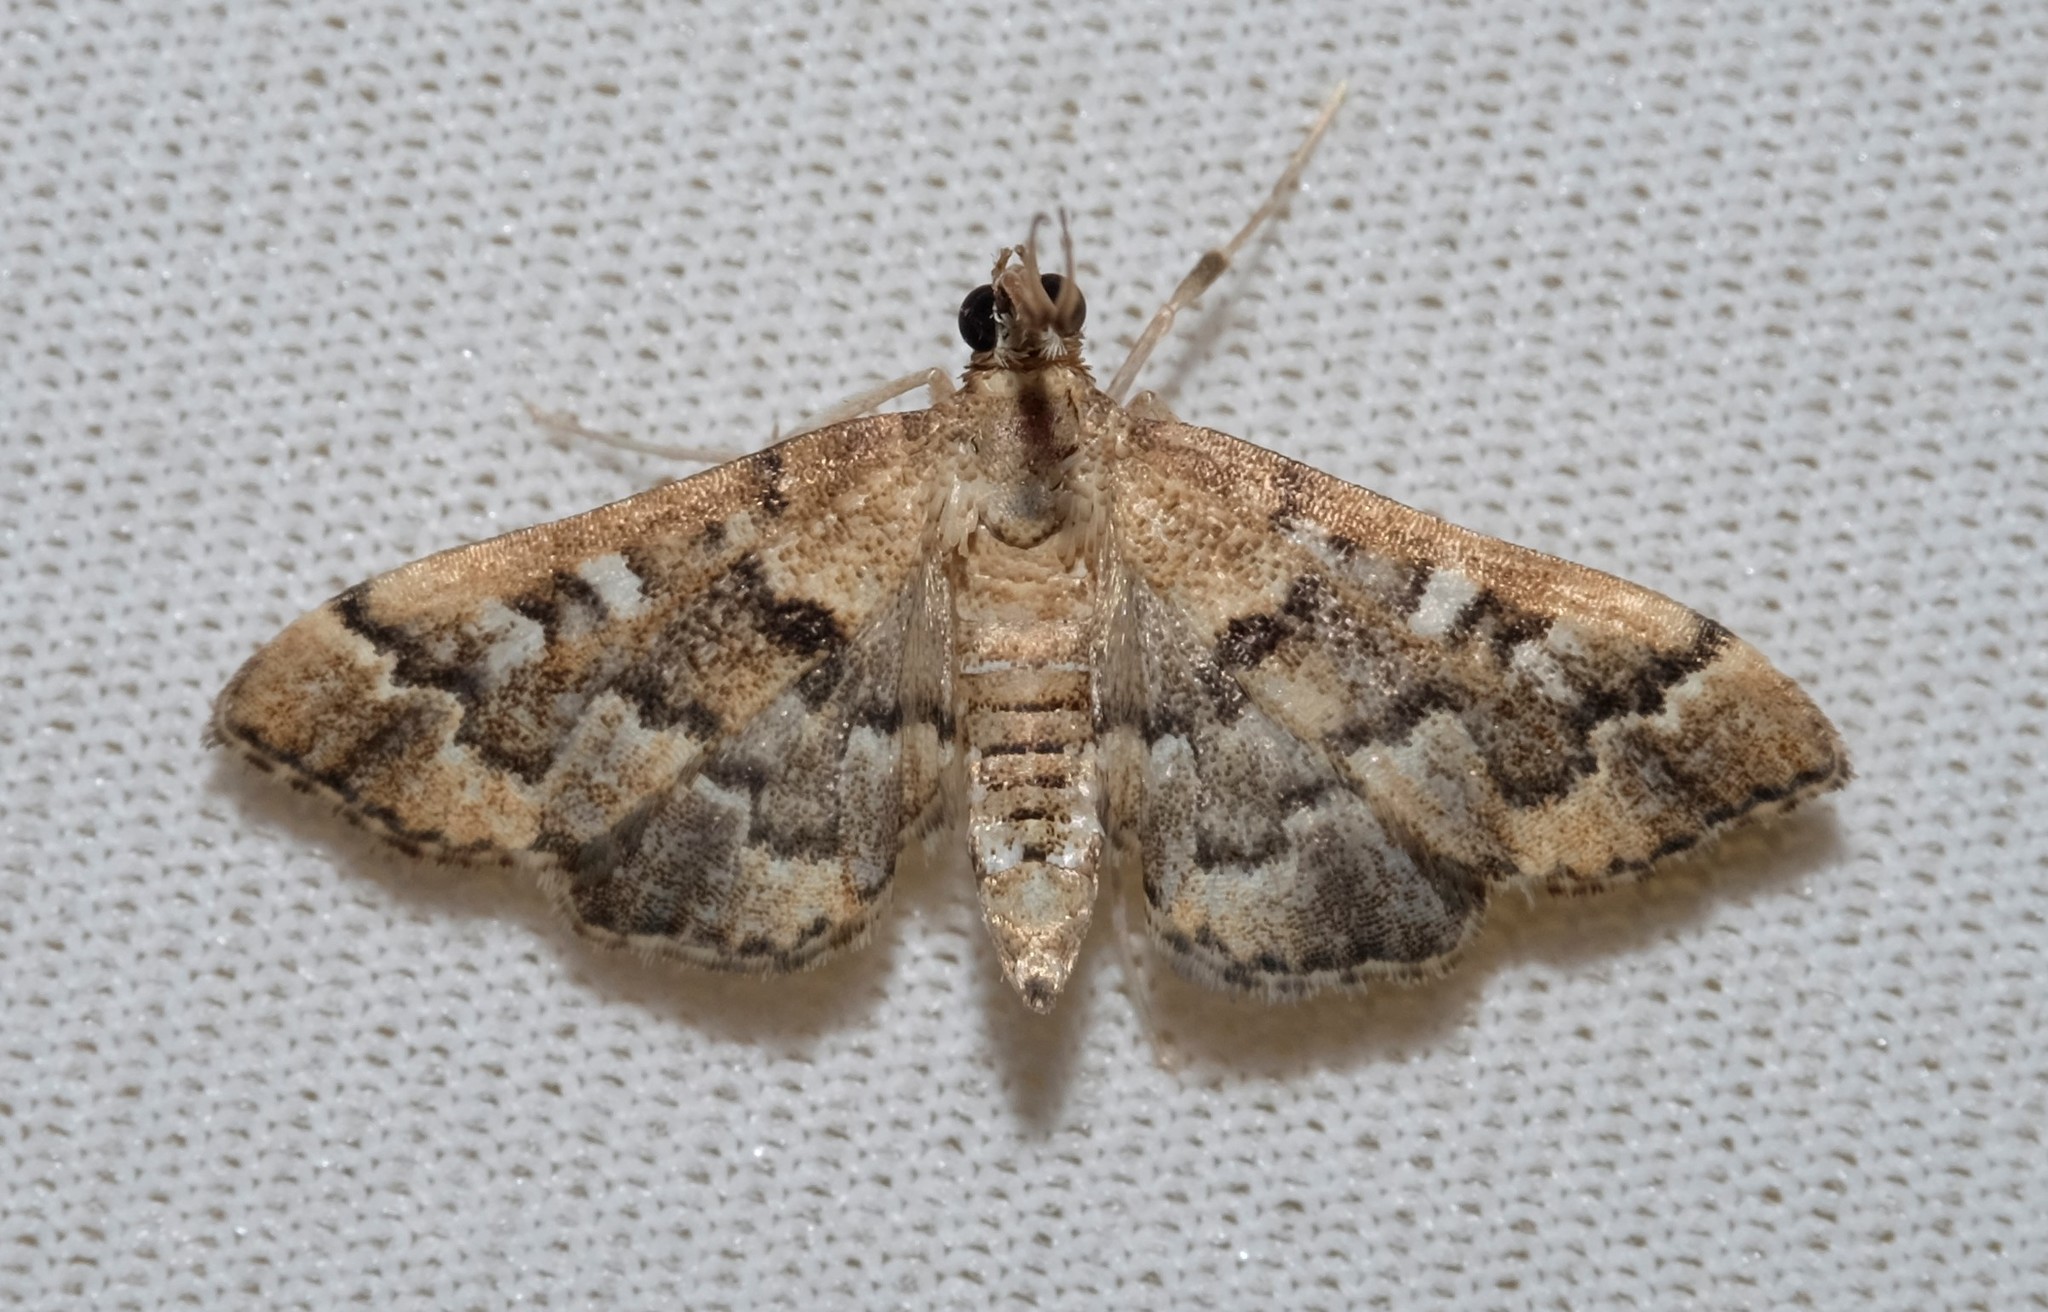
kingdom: Animalia
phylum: Arthropoda
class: Insecta
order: Lepidoptera
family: Crambidae
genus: Nacoleia
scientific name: Nacoleia rhoeoalis
